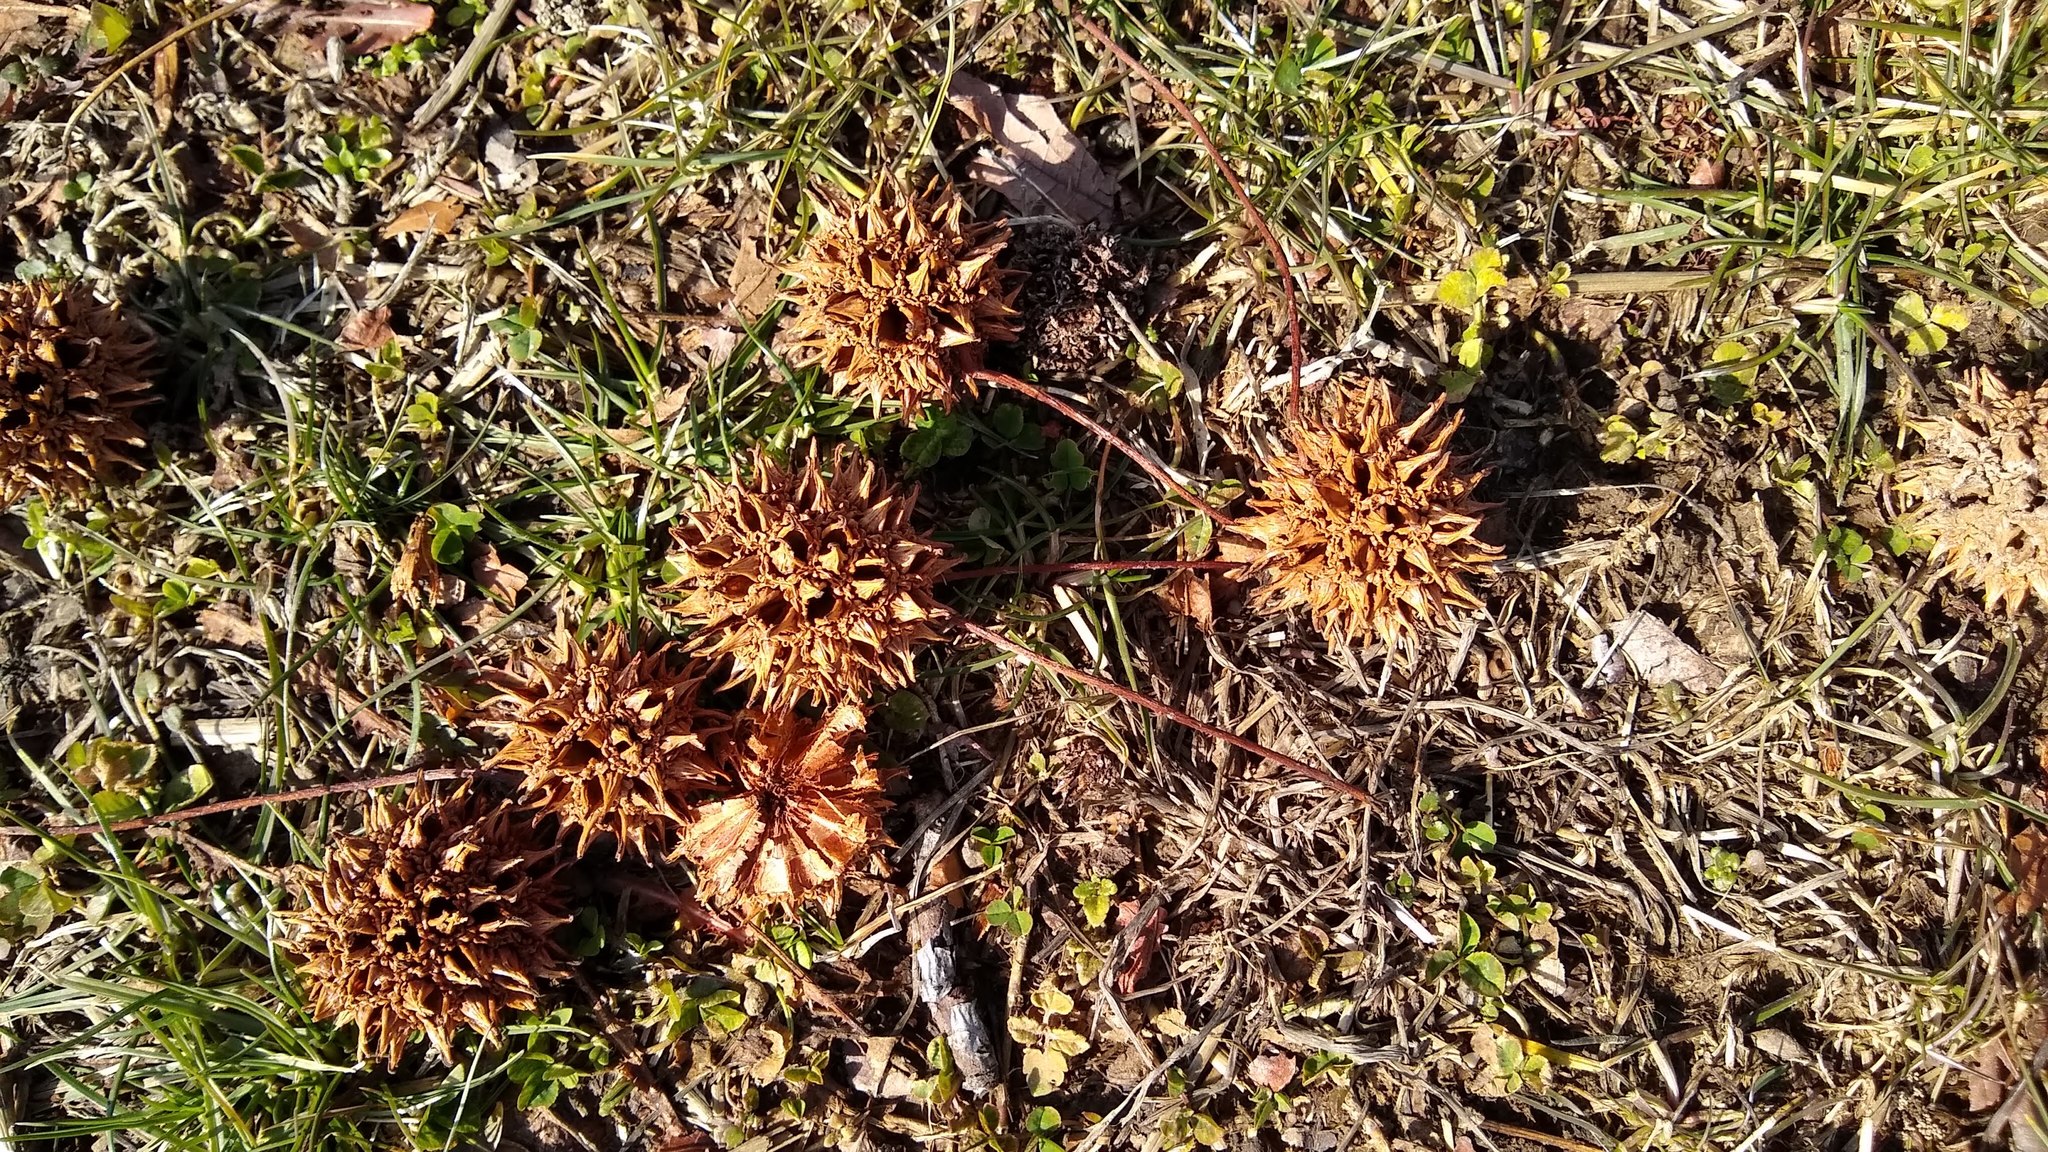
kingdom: Plantae
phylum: Tracheophyta
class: Magnoliopsida
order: Saxifragales
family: Altingiaceae
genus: Liquidambar
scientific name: Liquidambar styraciflua
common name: Sweet gum
